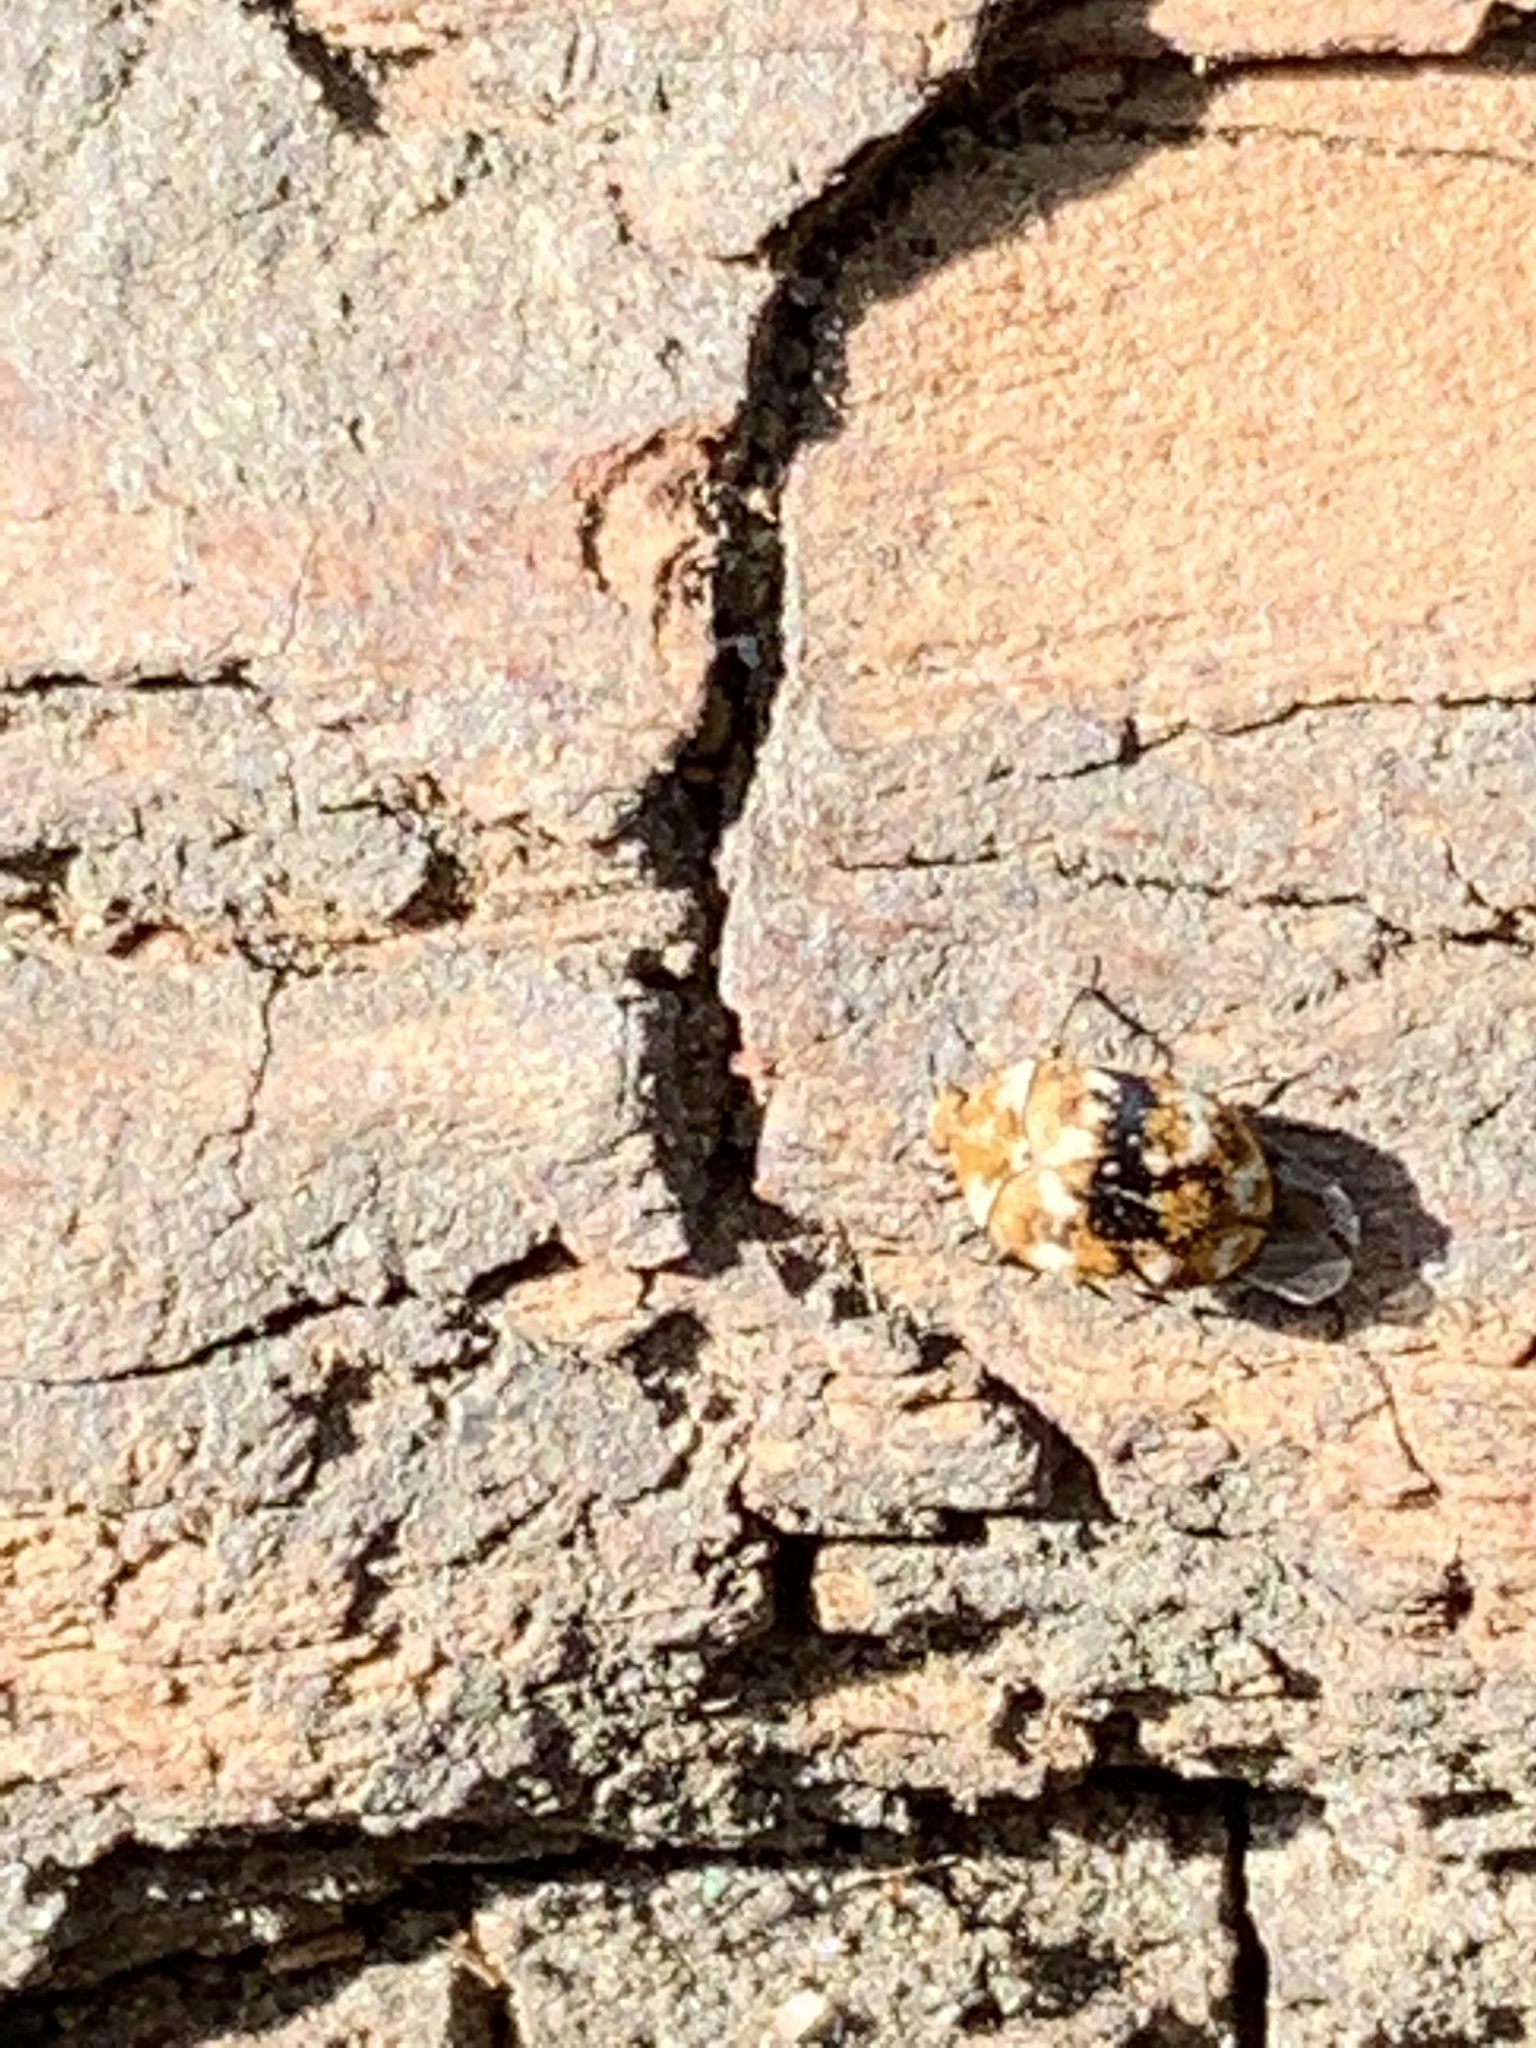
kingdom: Animalia
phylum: Arthropoda
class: Insecta
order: Coleoptera
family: Dermestidae
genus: Anthrenus
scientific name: Anthrenus verbasci
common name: Varied carpet beetle
